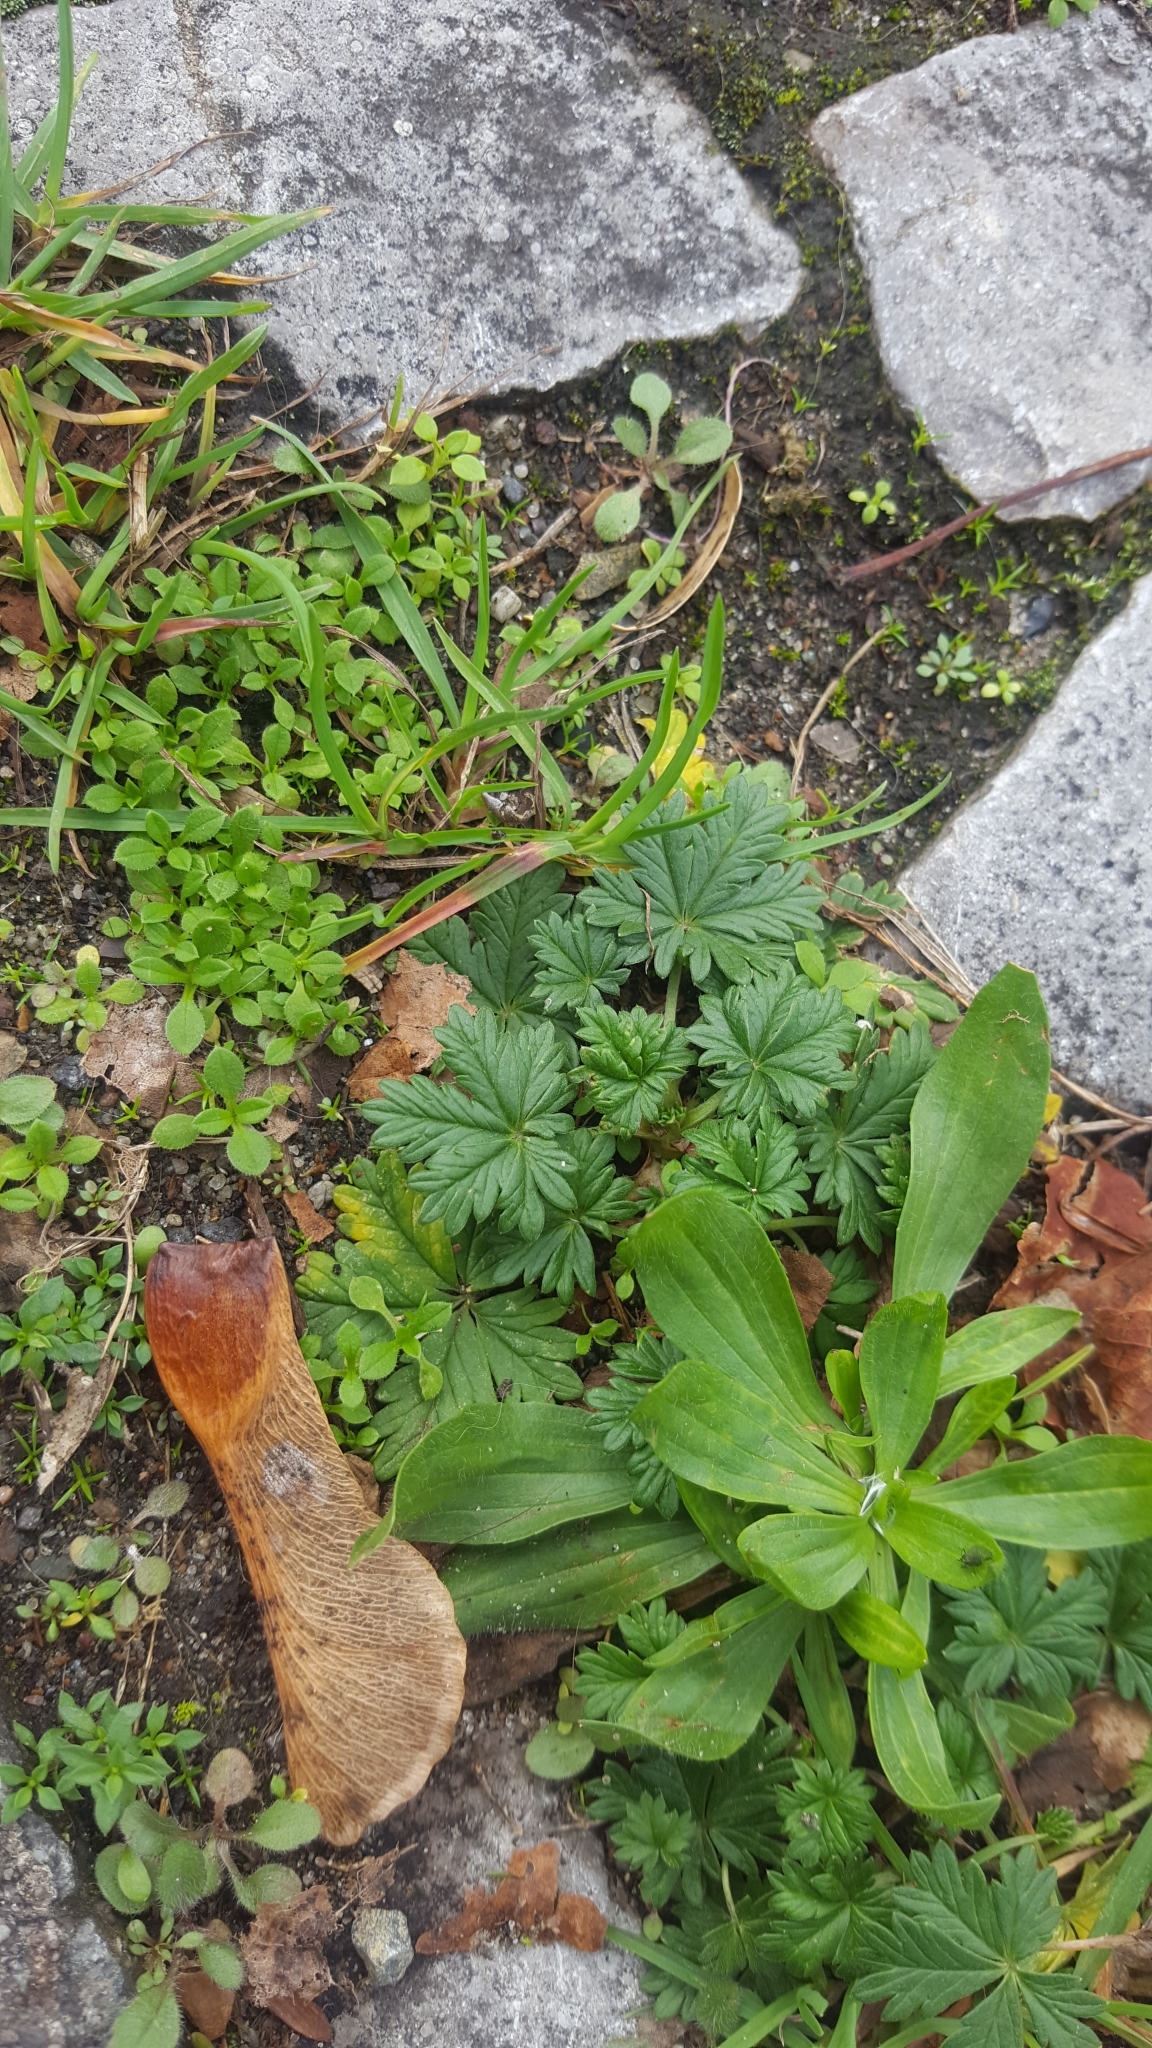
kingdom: Plantae
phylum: Tracheophyta
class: Magnoliopsida
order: Rosales
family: Rosaceae
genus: Potentilla
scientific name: Potentilla argentea
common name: Hoary cinquefoil
